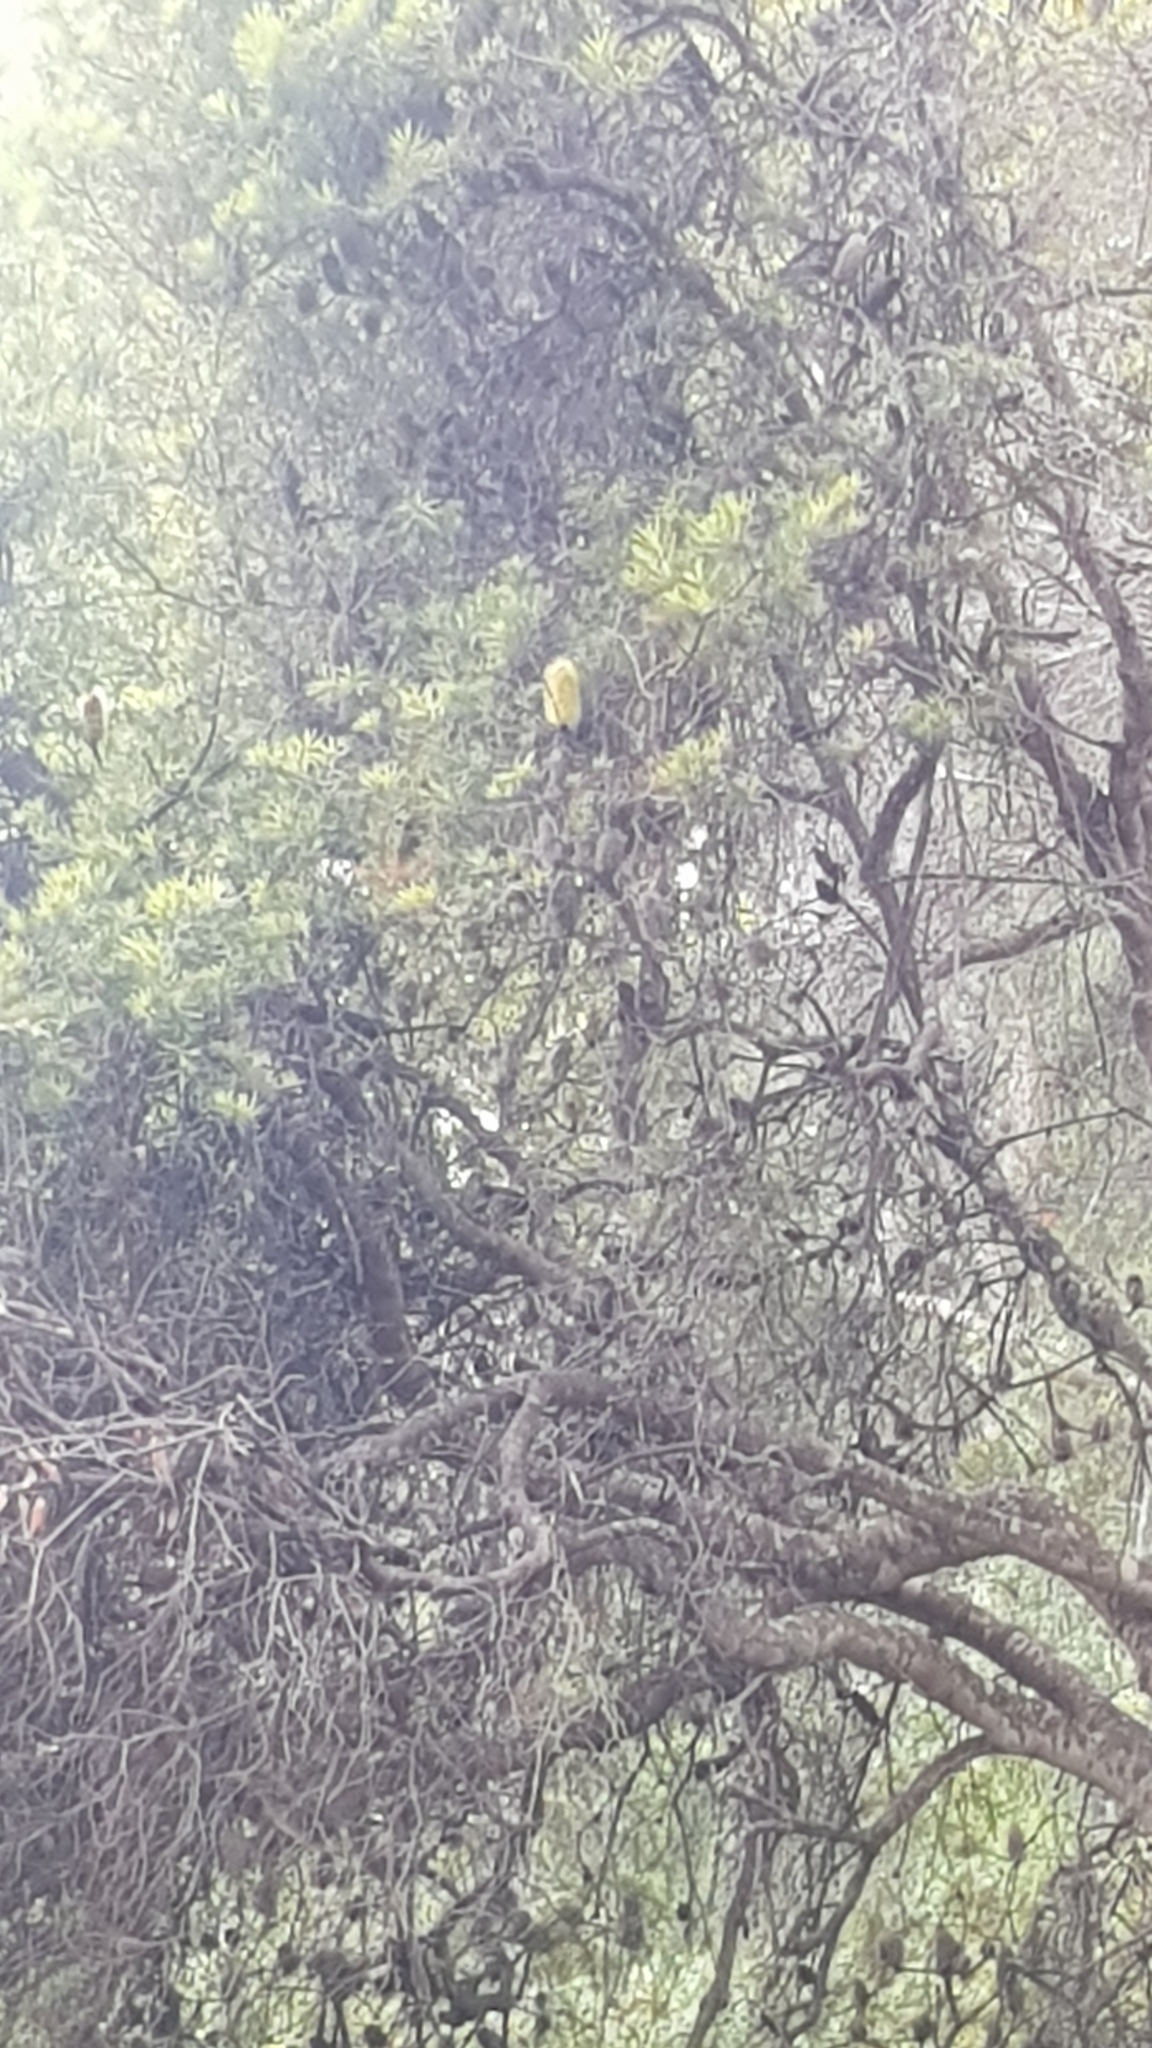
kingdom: Plantae
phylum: Tracheophyta
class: Magnoliopsida
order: Proteales
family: Proteaceae
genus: Banksia
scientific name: Banksia marginata
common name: Silver banksia
